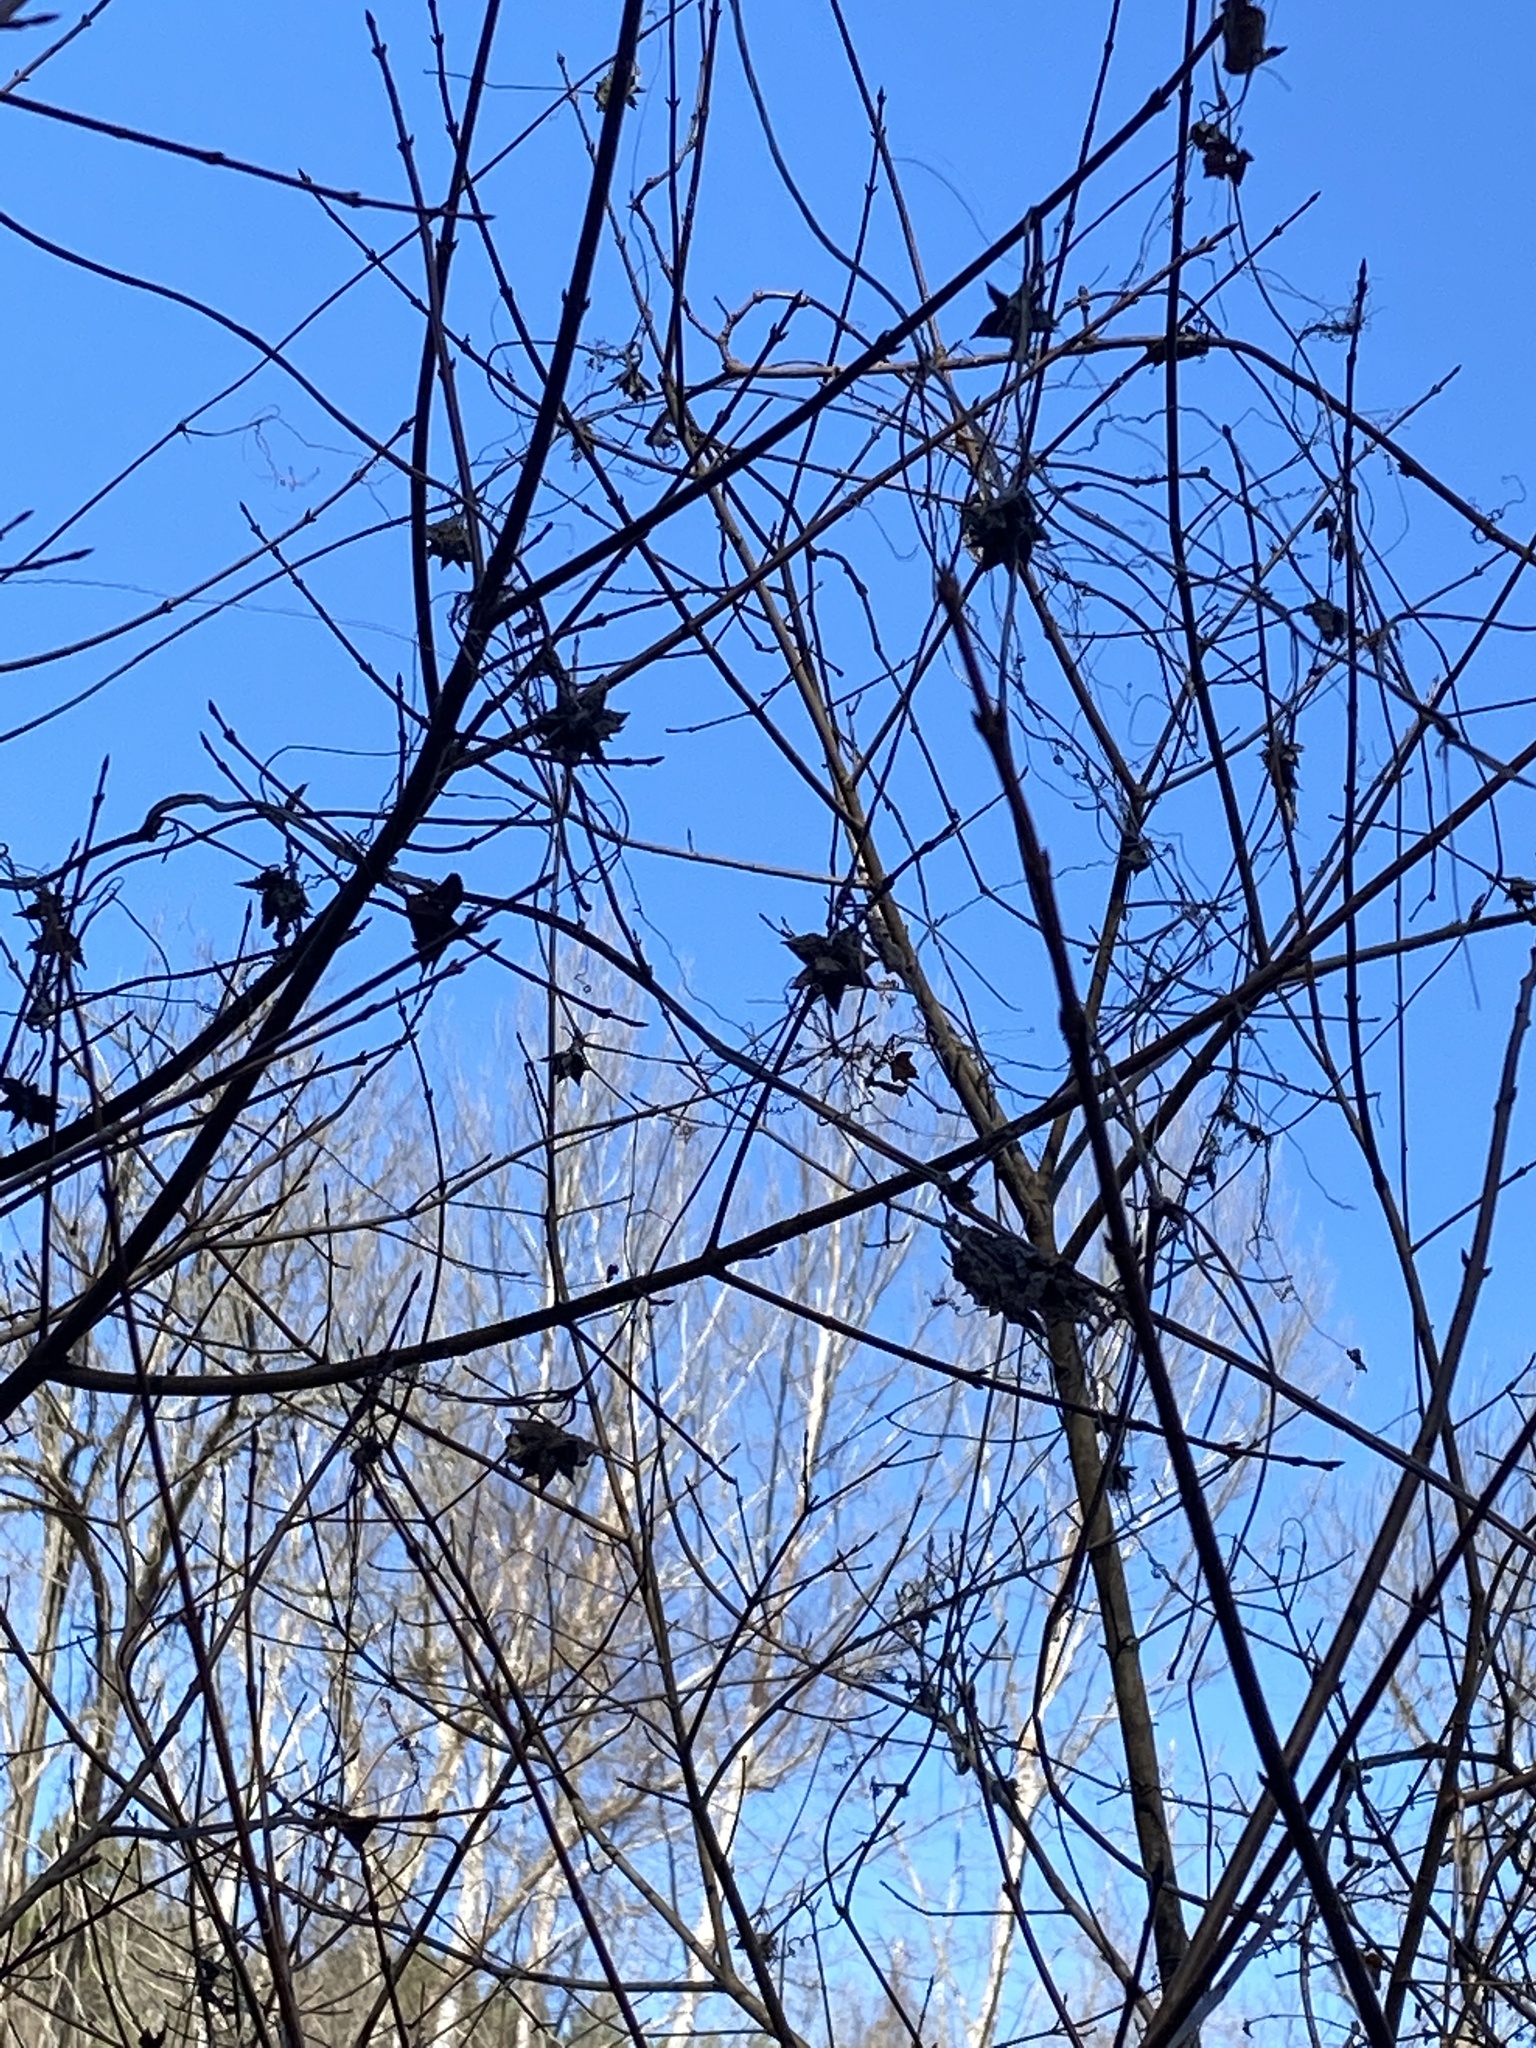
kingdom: Plantae
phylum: Tracheophyta
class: Magnoliopsida
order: Cucurbitales
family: Cucurbitaceae
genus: Sicyos
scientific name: Sicyos angulatus
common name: Angled burr cucumber
